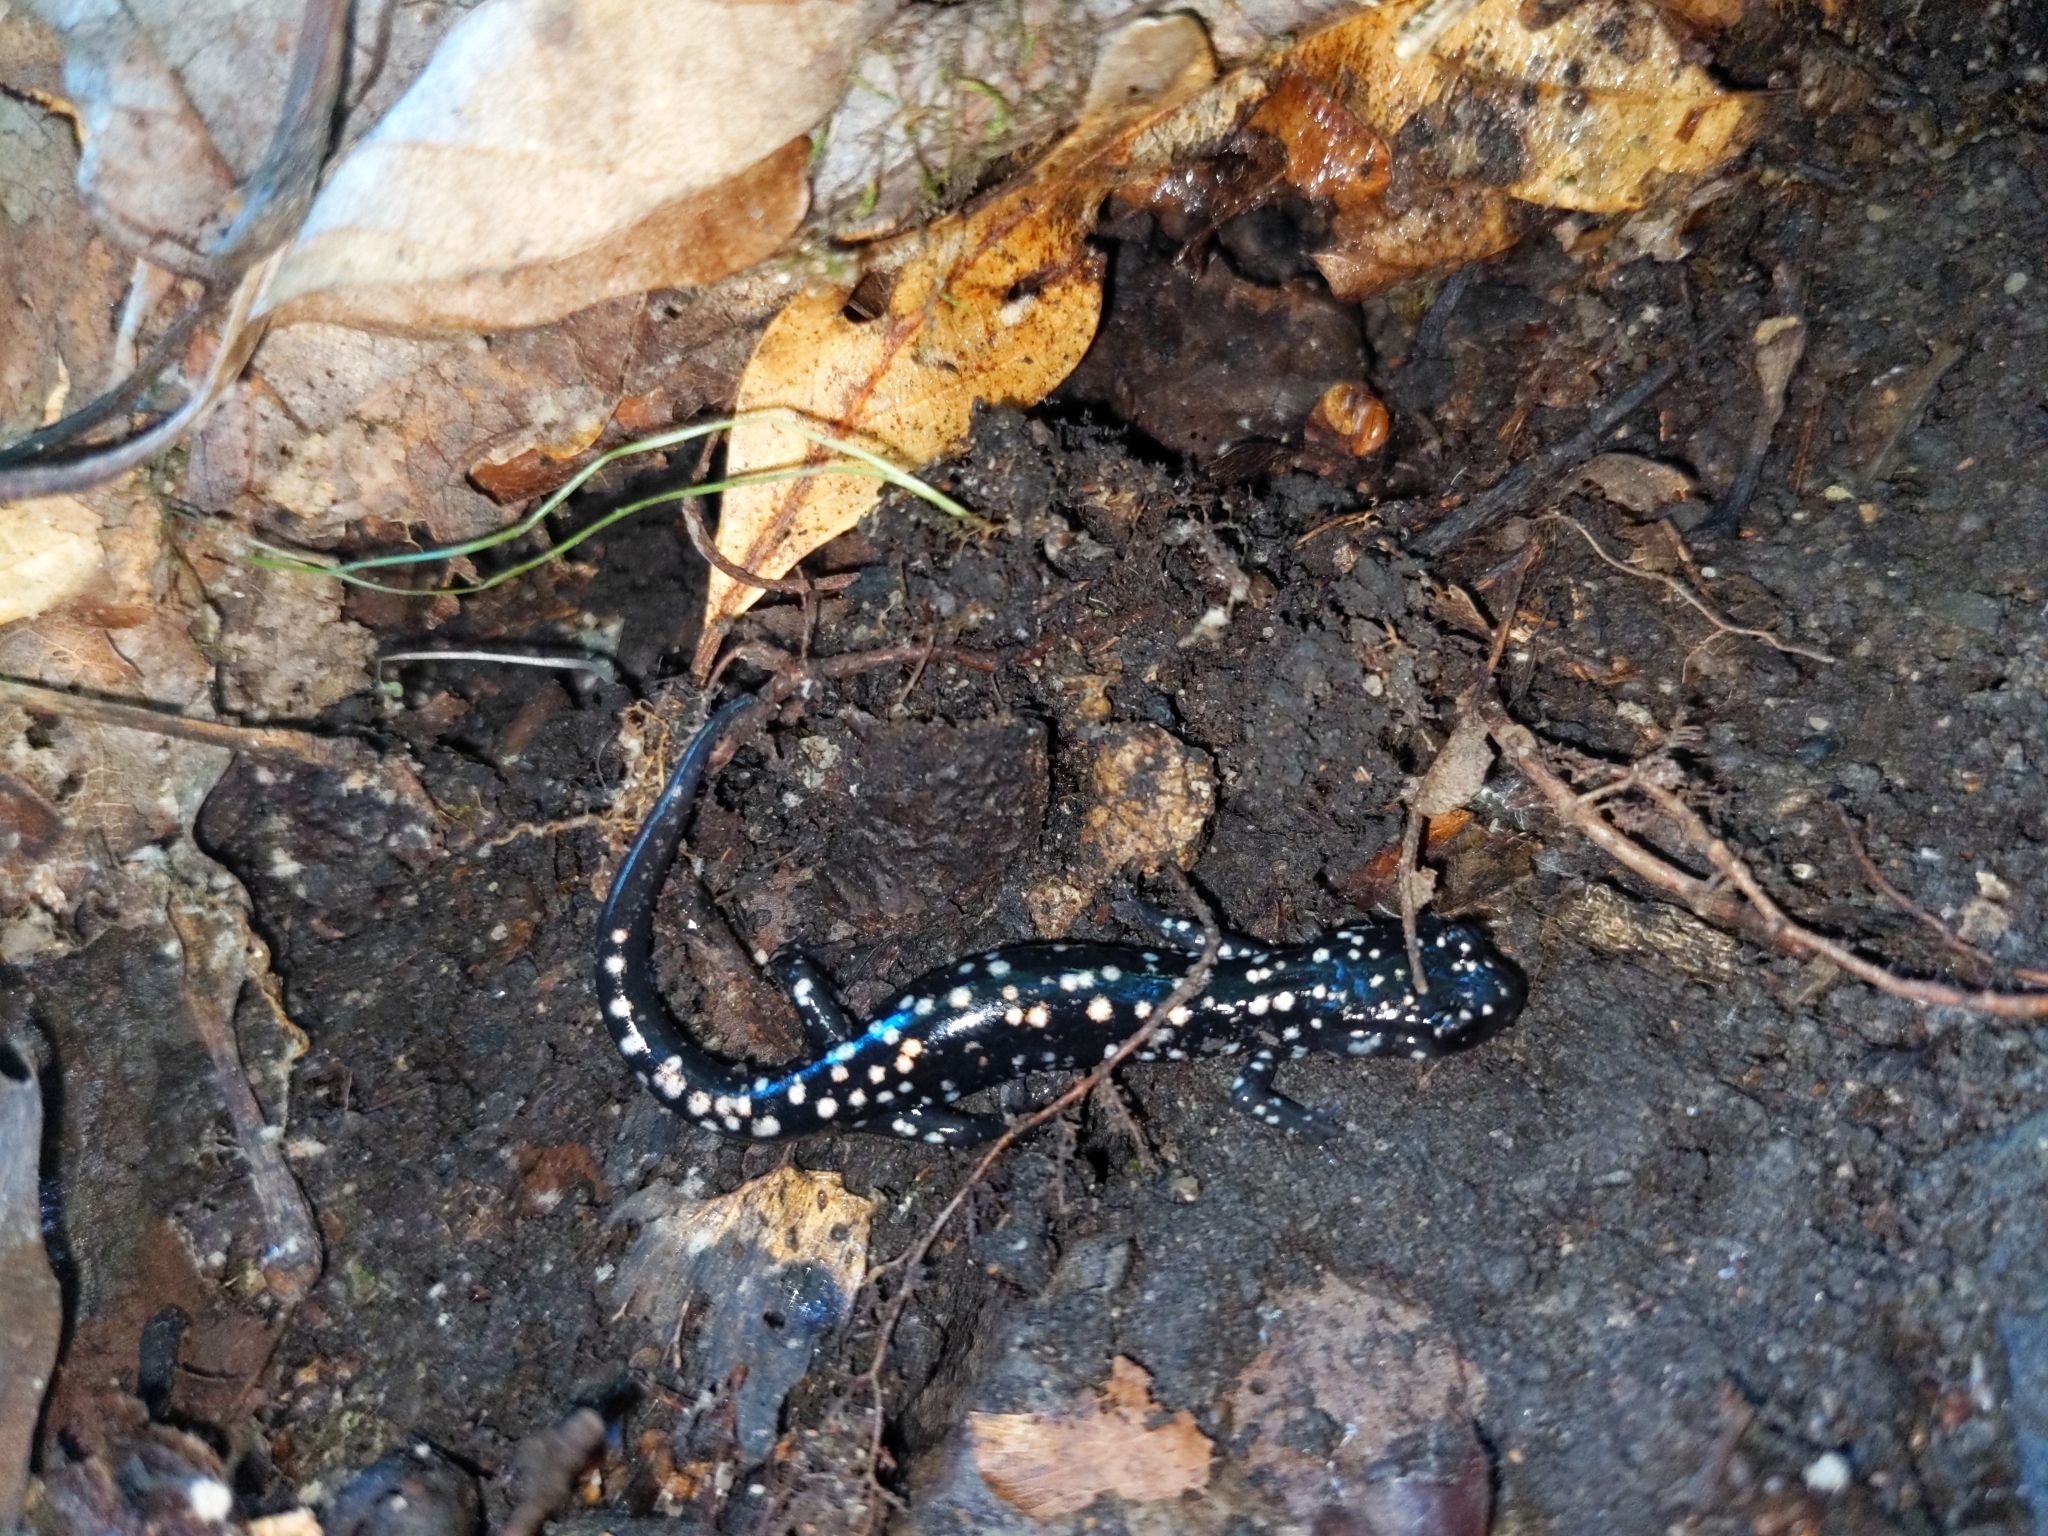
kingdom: Animalia
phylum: Chordata
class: Amphibia
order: Caudata
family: Plethodontidae
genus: Plethodon
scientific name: Plethodon glutinosus
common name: Northern slimy salamander
